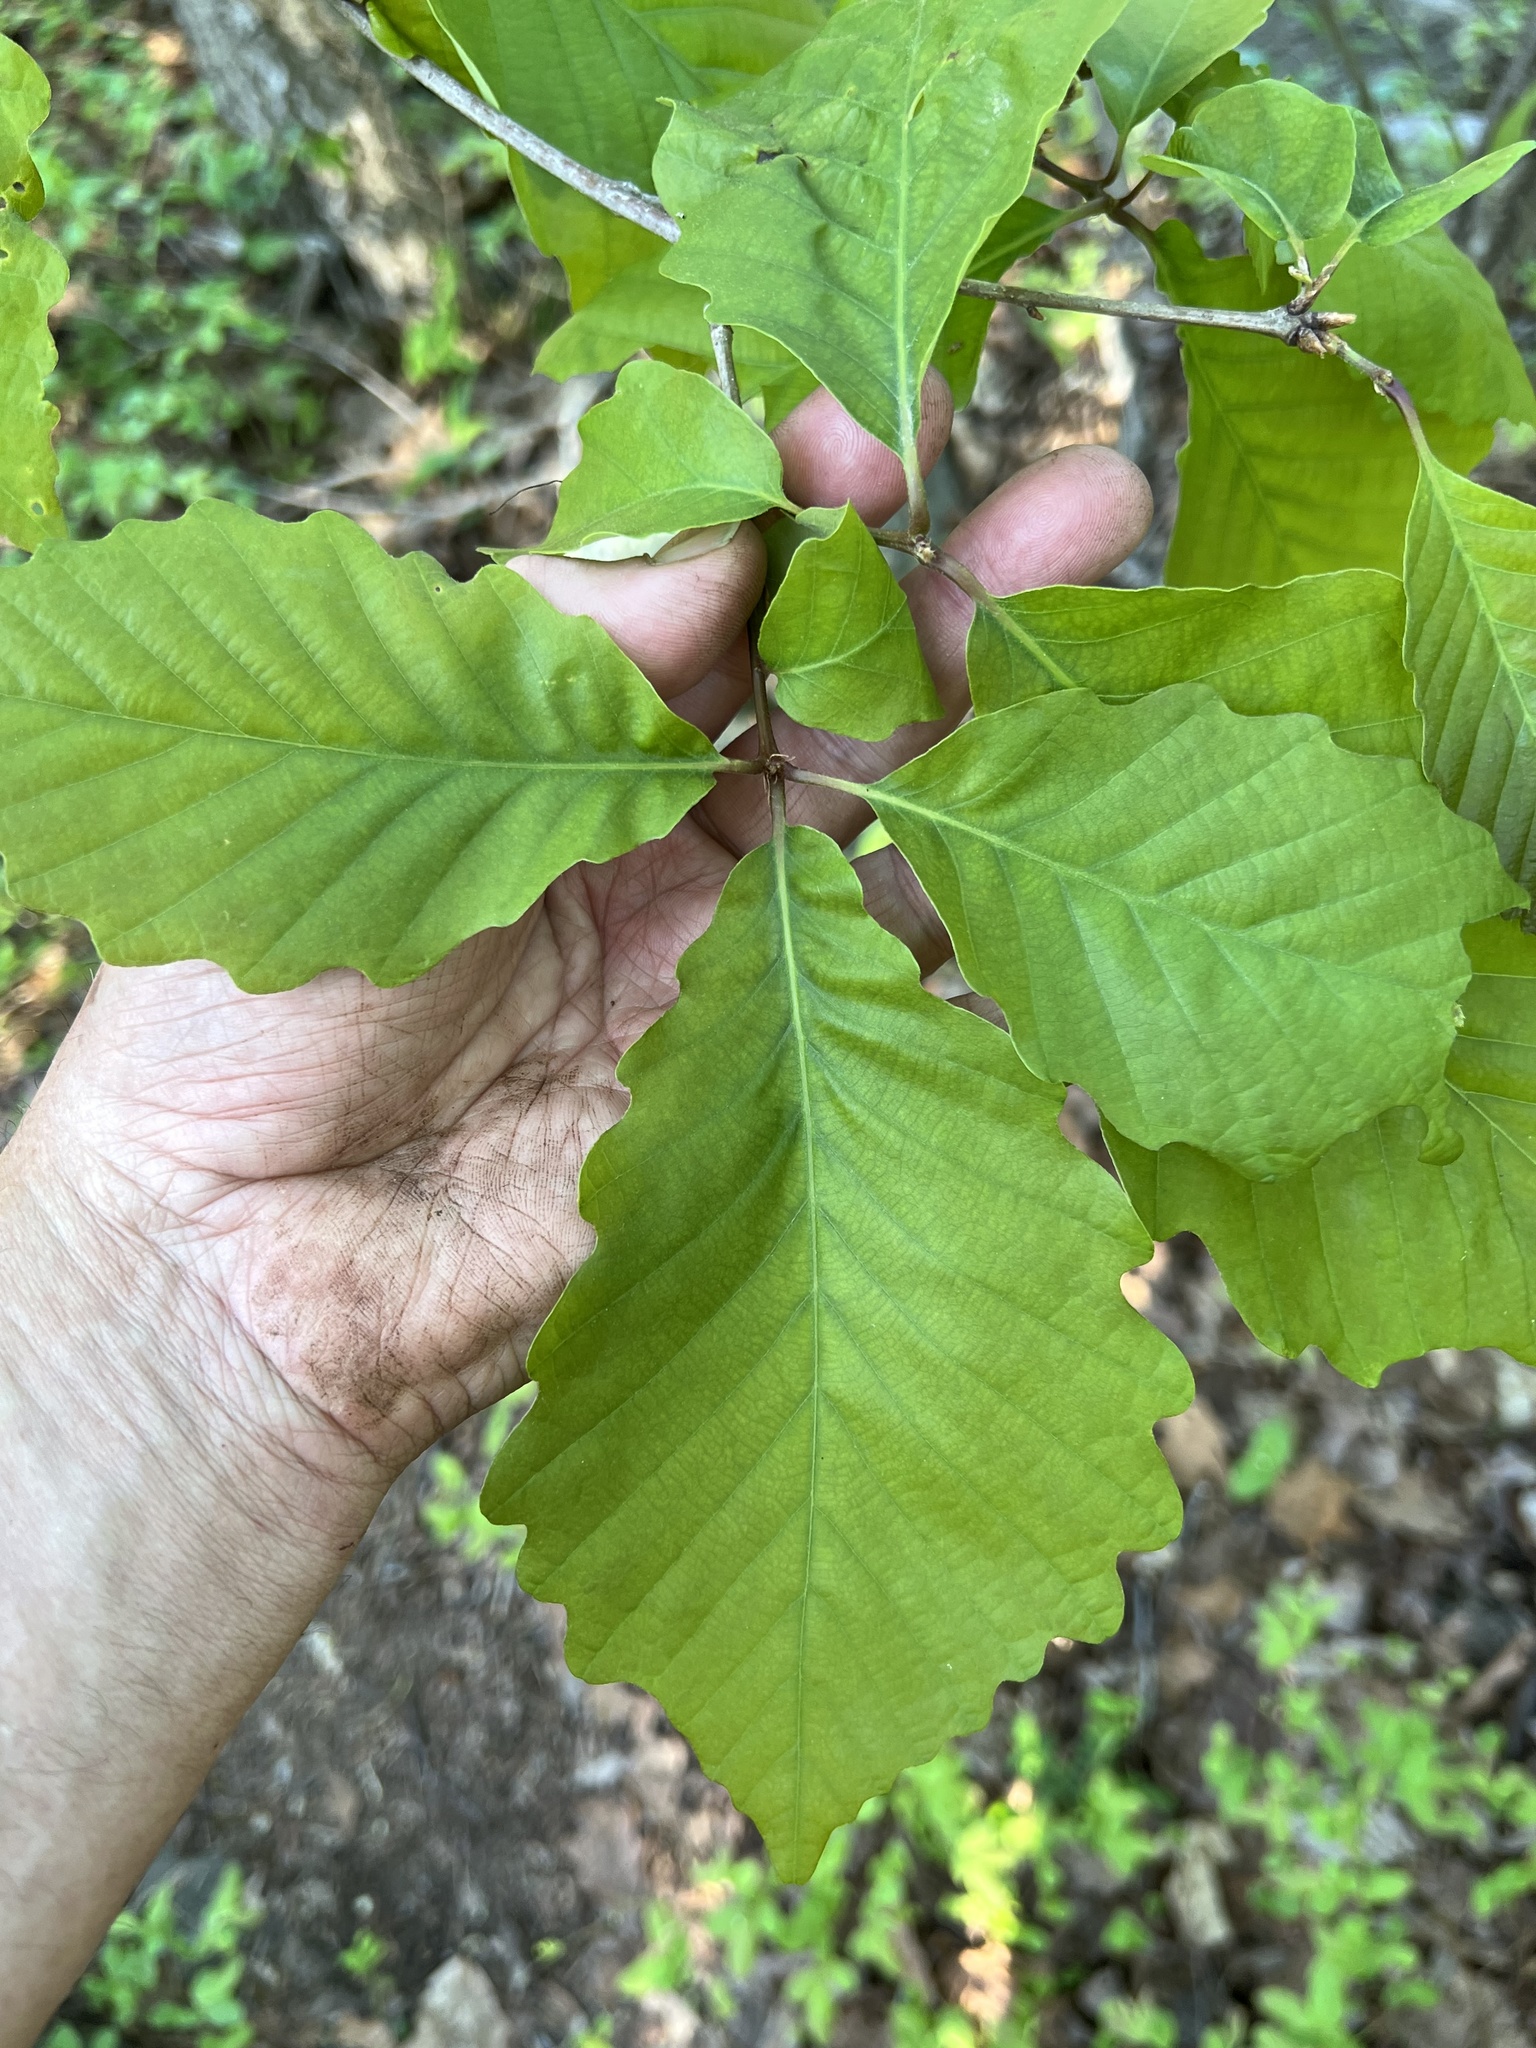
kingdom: Plantae
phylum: Tracheophyta
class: Magnoliopsida
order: Fagales
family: Fagaceae
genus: Quercus
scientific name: Quercus montana
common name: Chestnut oak
